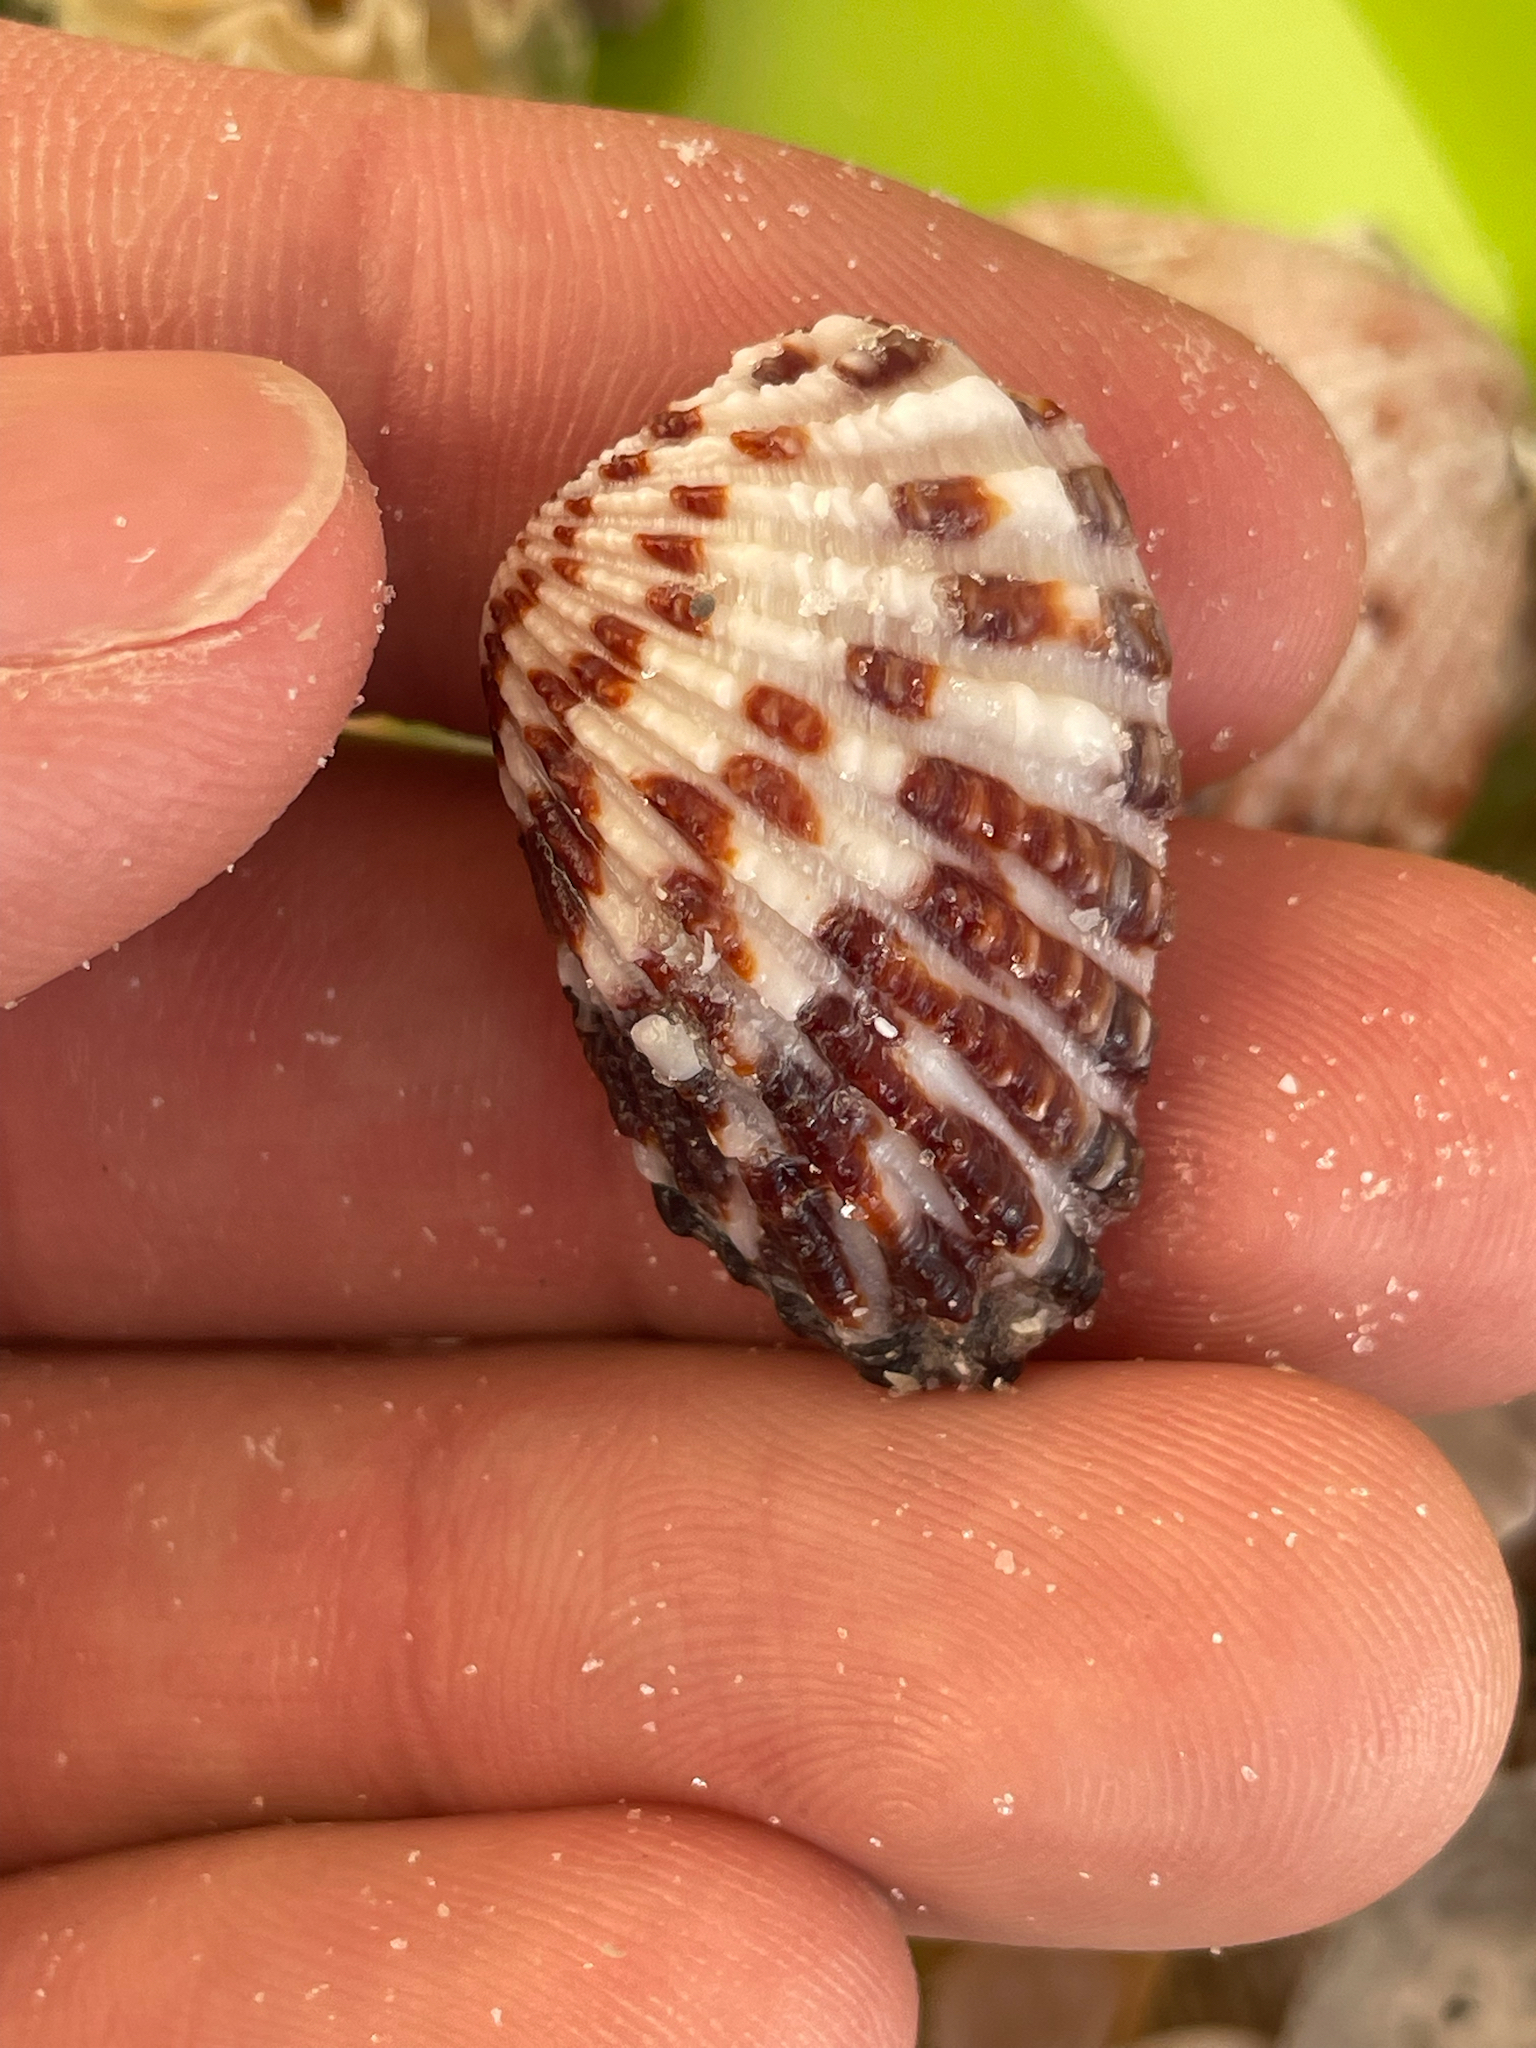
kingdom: Animalia
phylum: Mollusca
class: Bivalvia
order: Carditida
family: Carditidae
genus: Cardites
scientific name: Cardites floridanus
